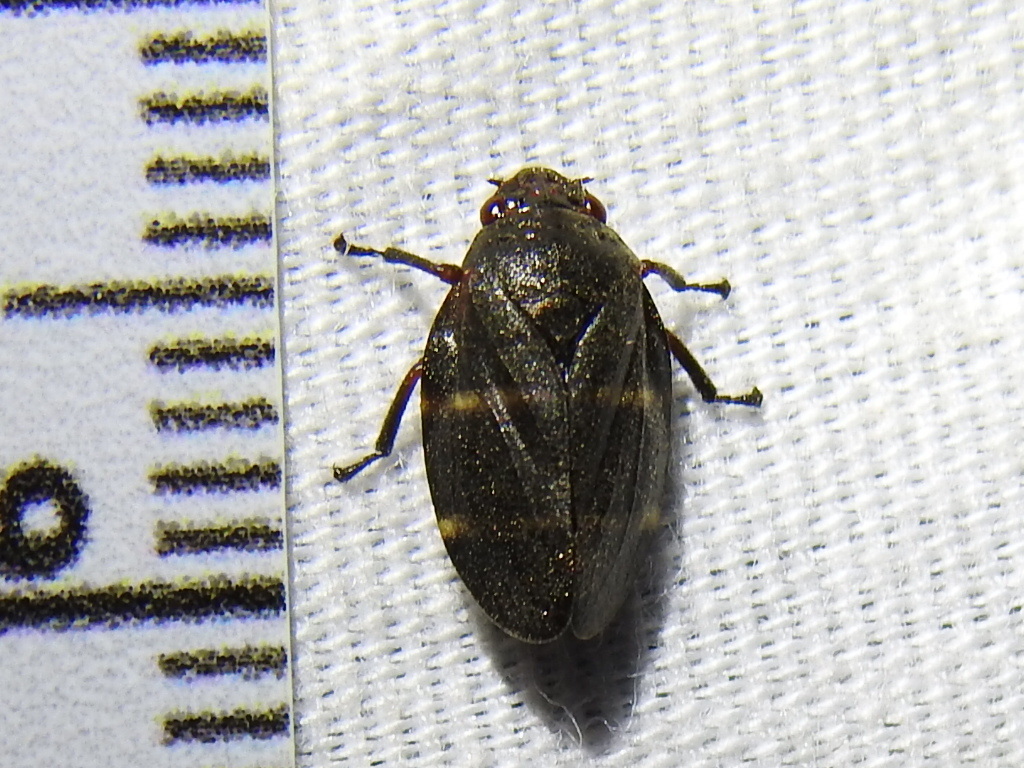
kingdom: Animalia
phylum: Arthropoda
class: Insecta
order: Hemiptera
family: Cercopidae
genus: Prosapia
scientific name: Prosapia simulans
